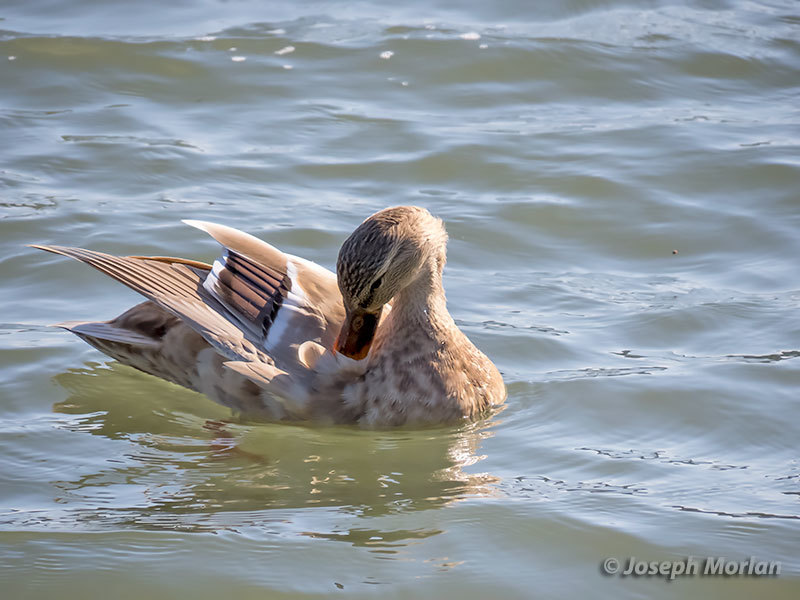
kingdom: Animalia
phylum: Chordata
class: Aves
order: Anseriformes
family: Anatidae
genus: Anas
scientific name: Anas platyrhynchos
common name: Mallard
